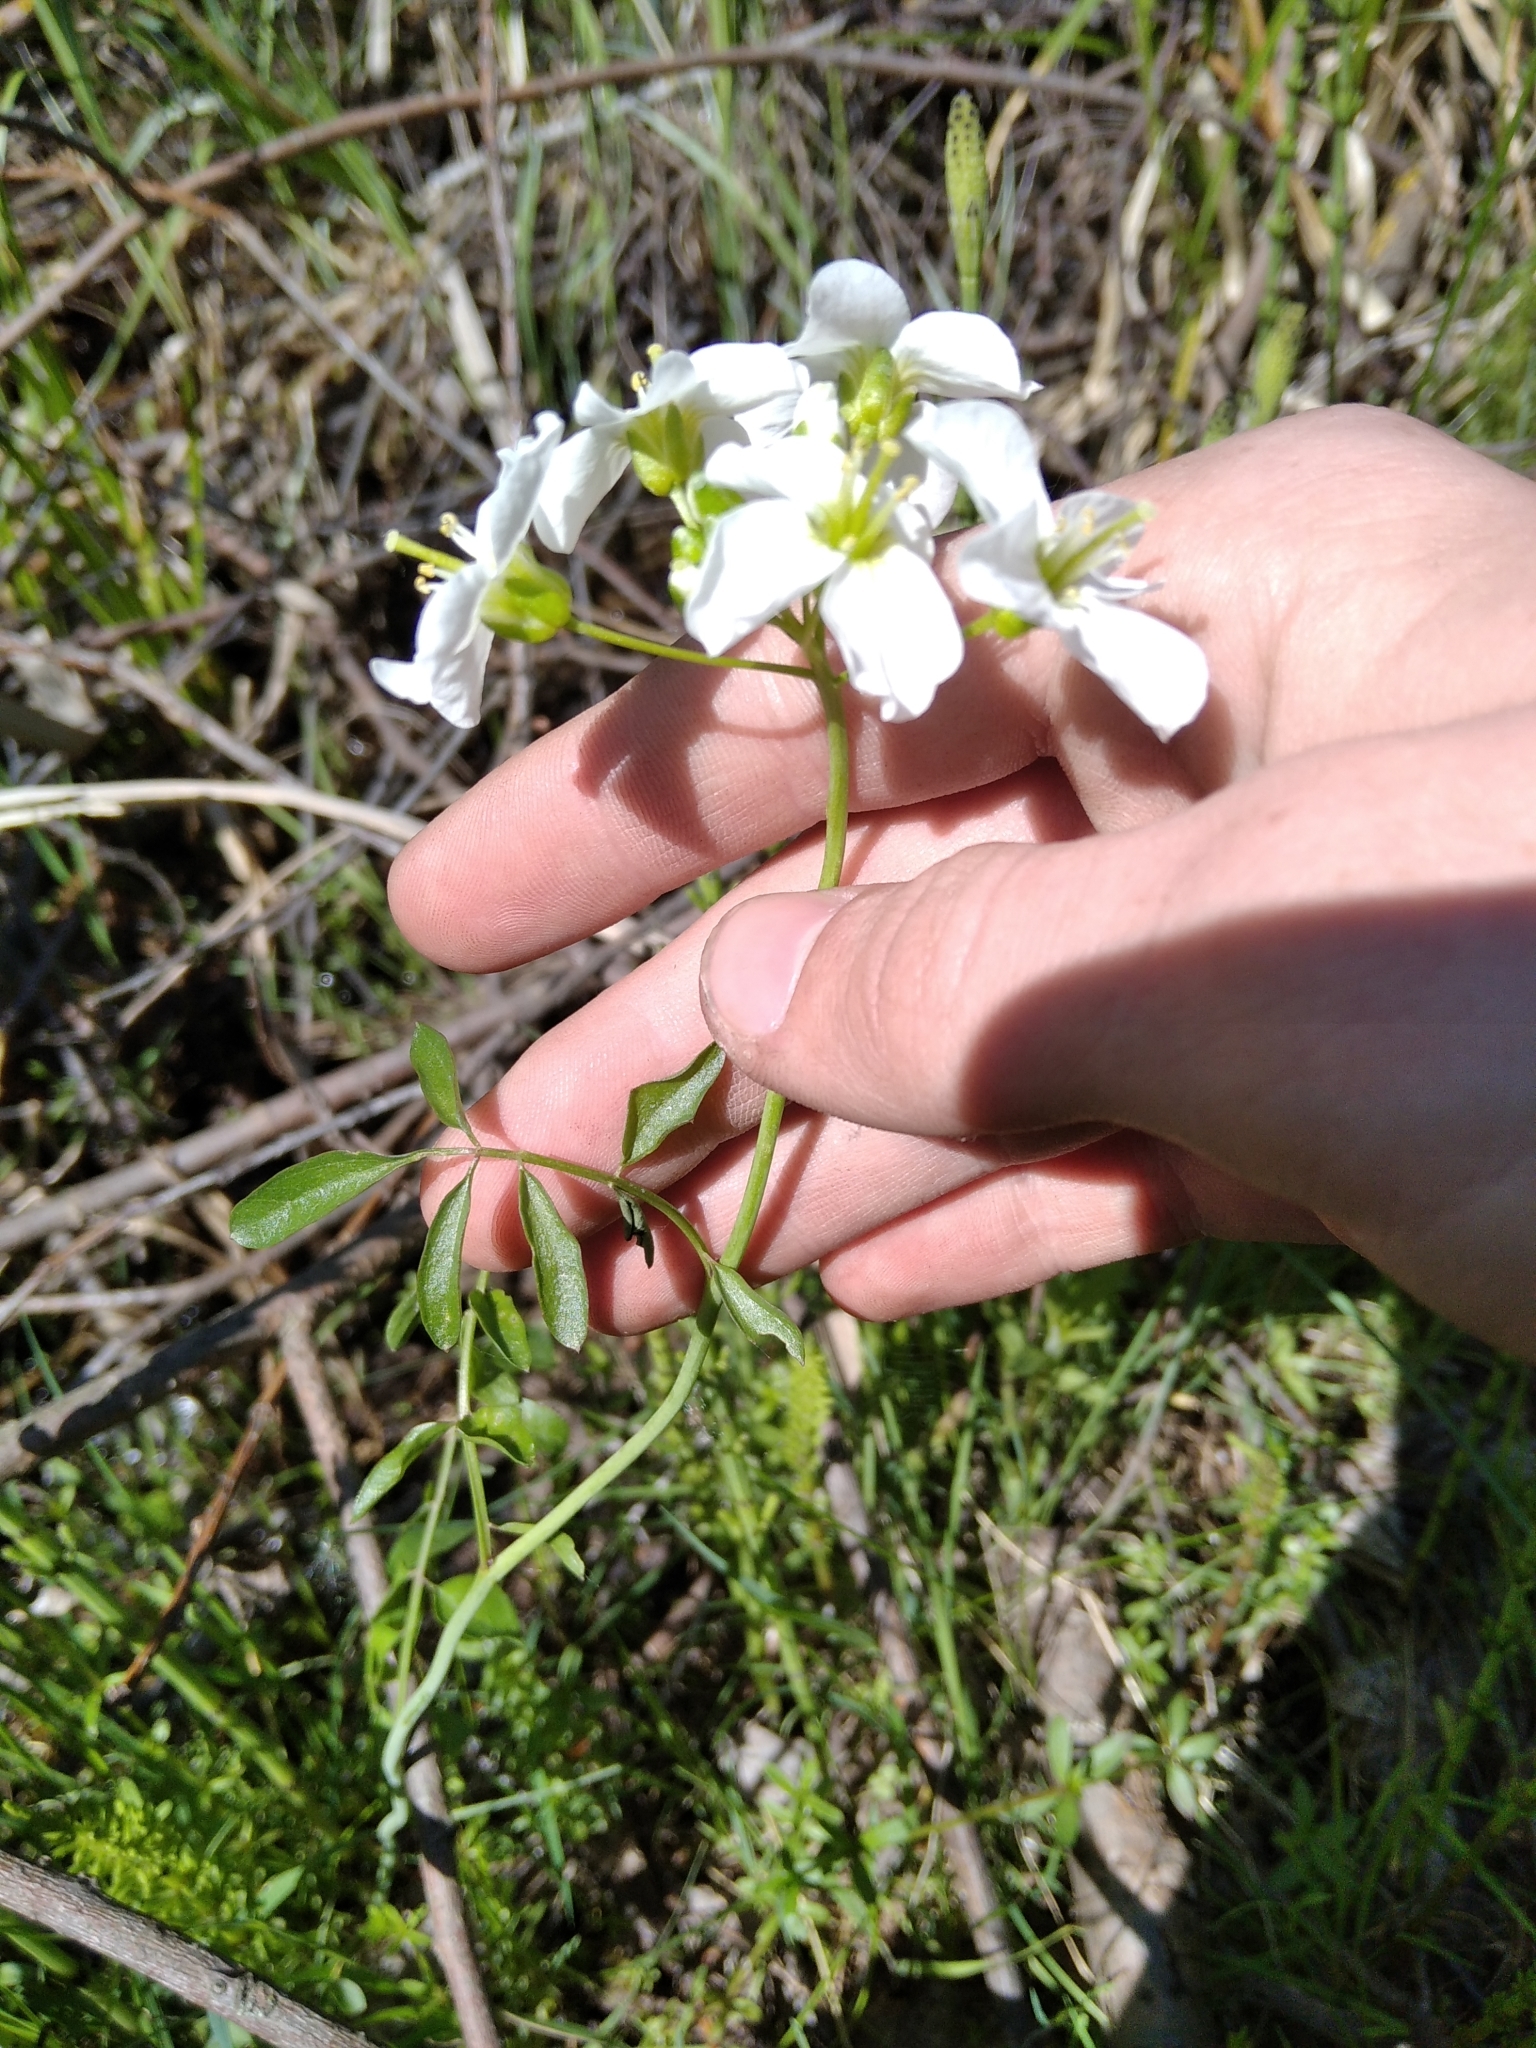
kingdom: Plantae
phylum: Tracheophyta
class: Magnoliopsida
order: Brassicales
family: Brassicaceae
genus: Cardamine
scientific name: Cardamine dentata
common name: Toothed bittercress
